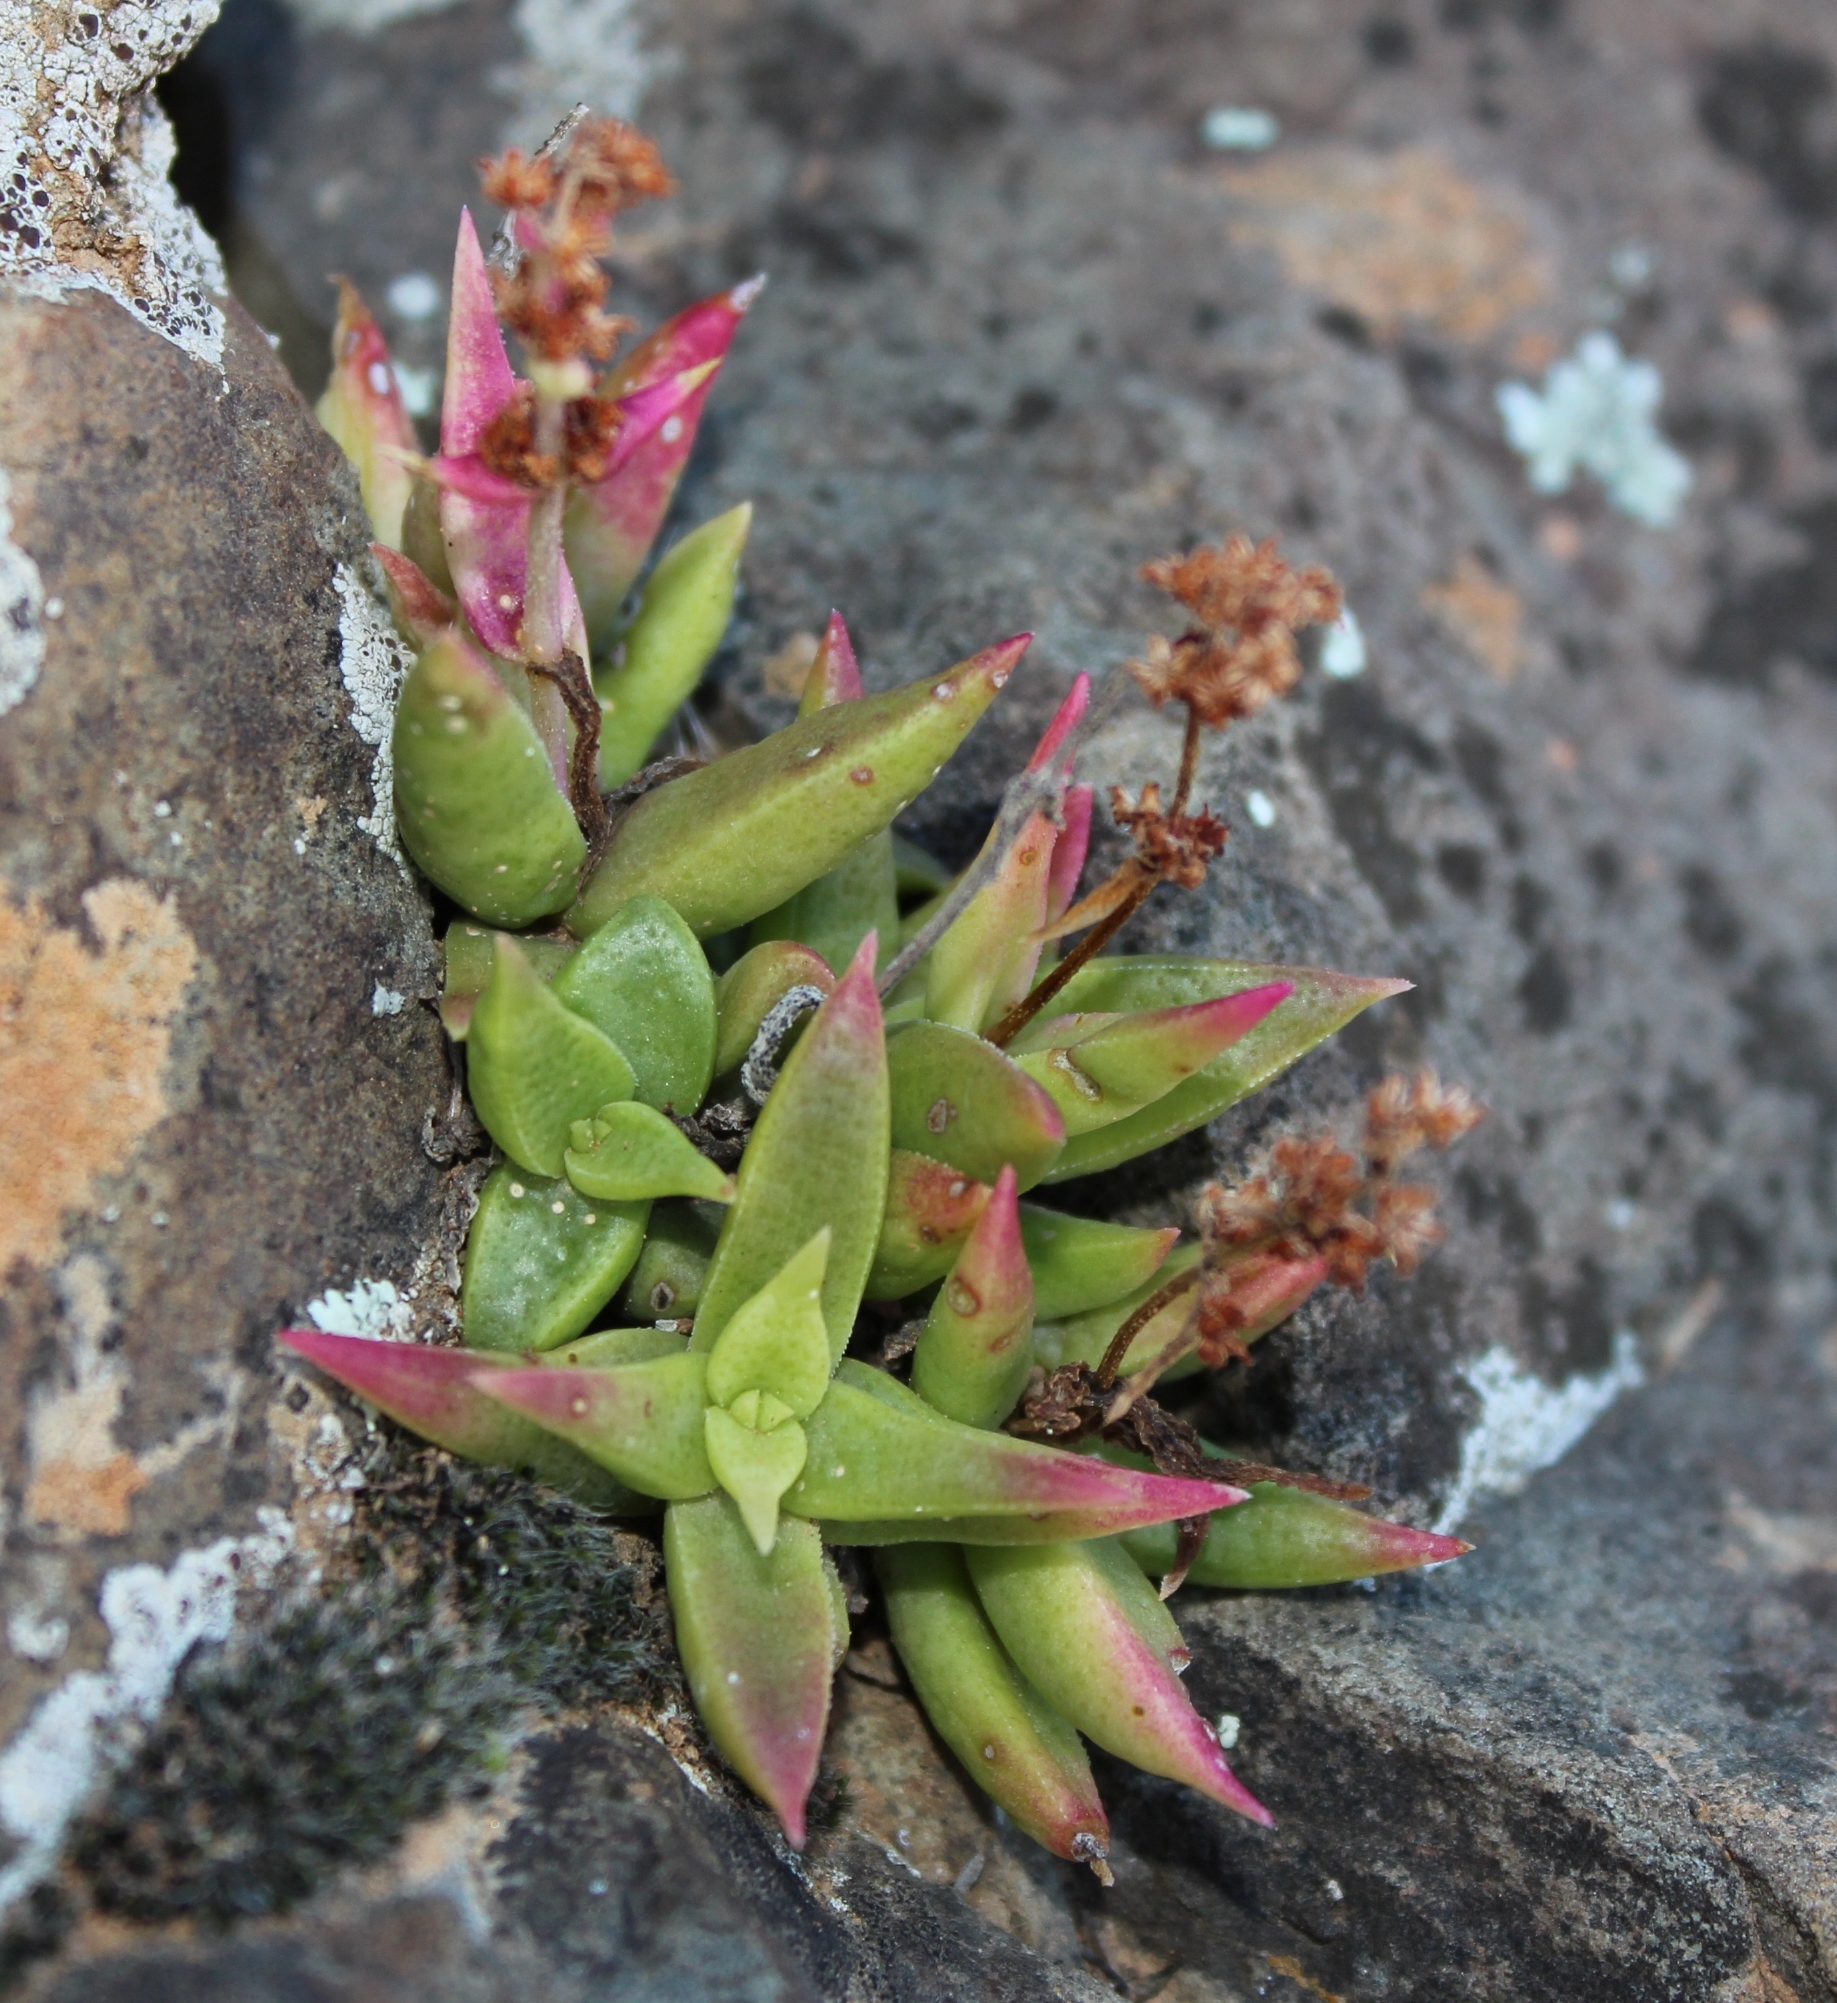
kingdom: Plantae
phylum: Tracheophyta
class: Magnoliopsida
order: Saxifragales
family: Crassulaceae
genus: Crassula
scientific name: Crassula capitella
